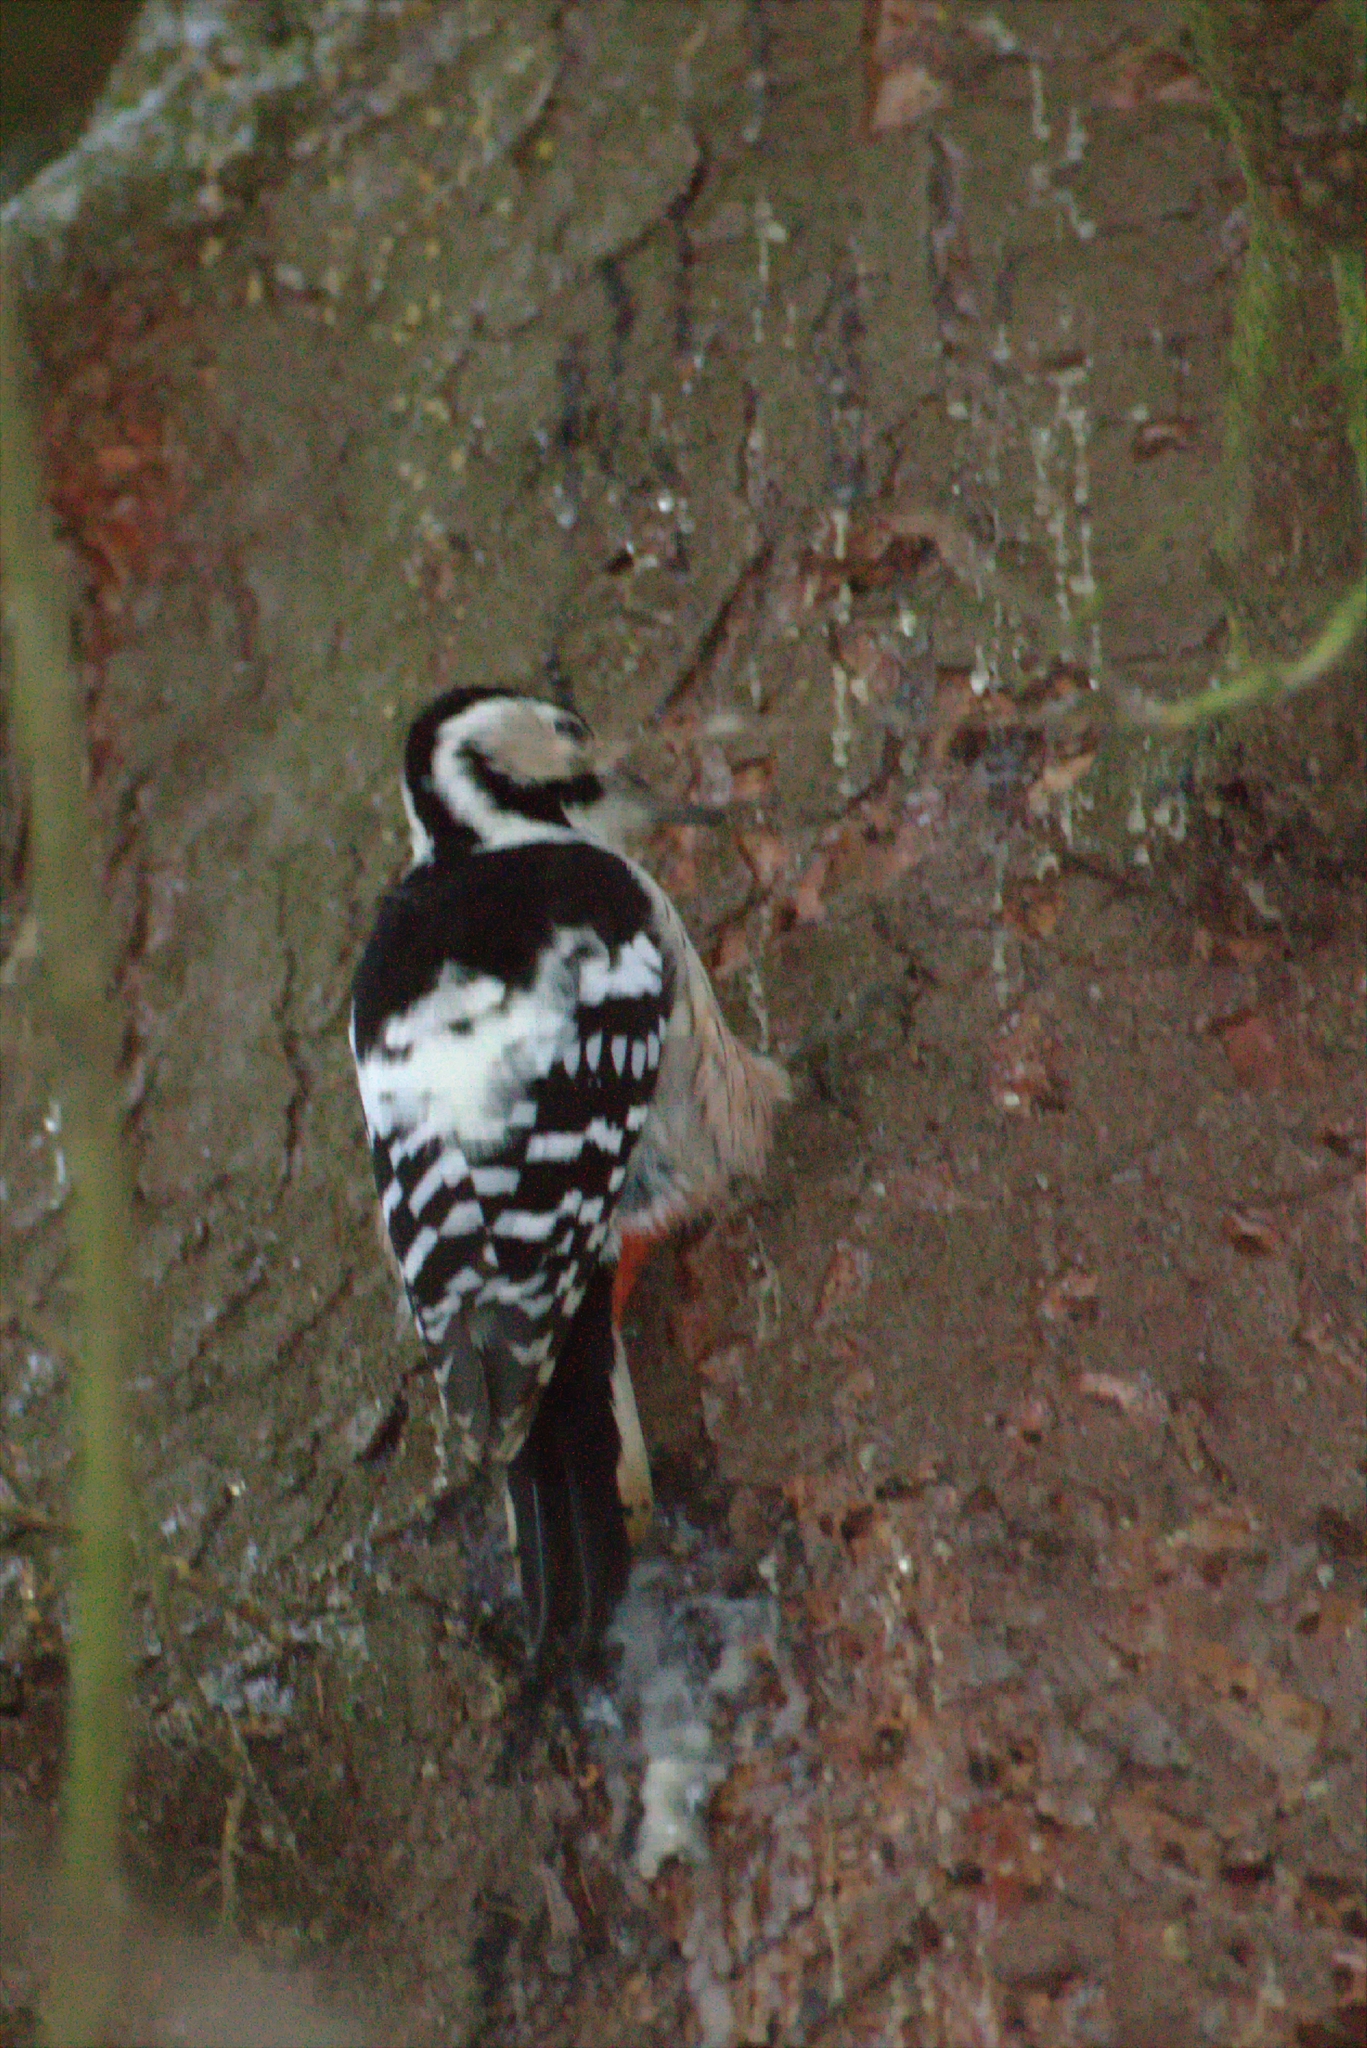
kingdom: Animalia
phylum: Chordata
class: Aves
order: Piciformes
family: Picidae
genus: Dendrocopos
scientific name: Dendrocopos leucotos
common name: White-backed woodpecker
